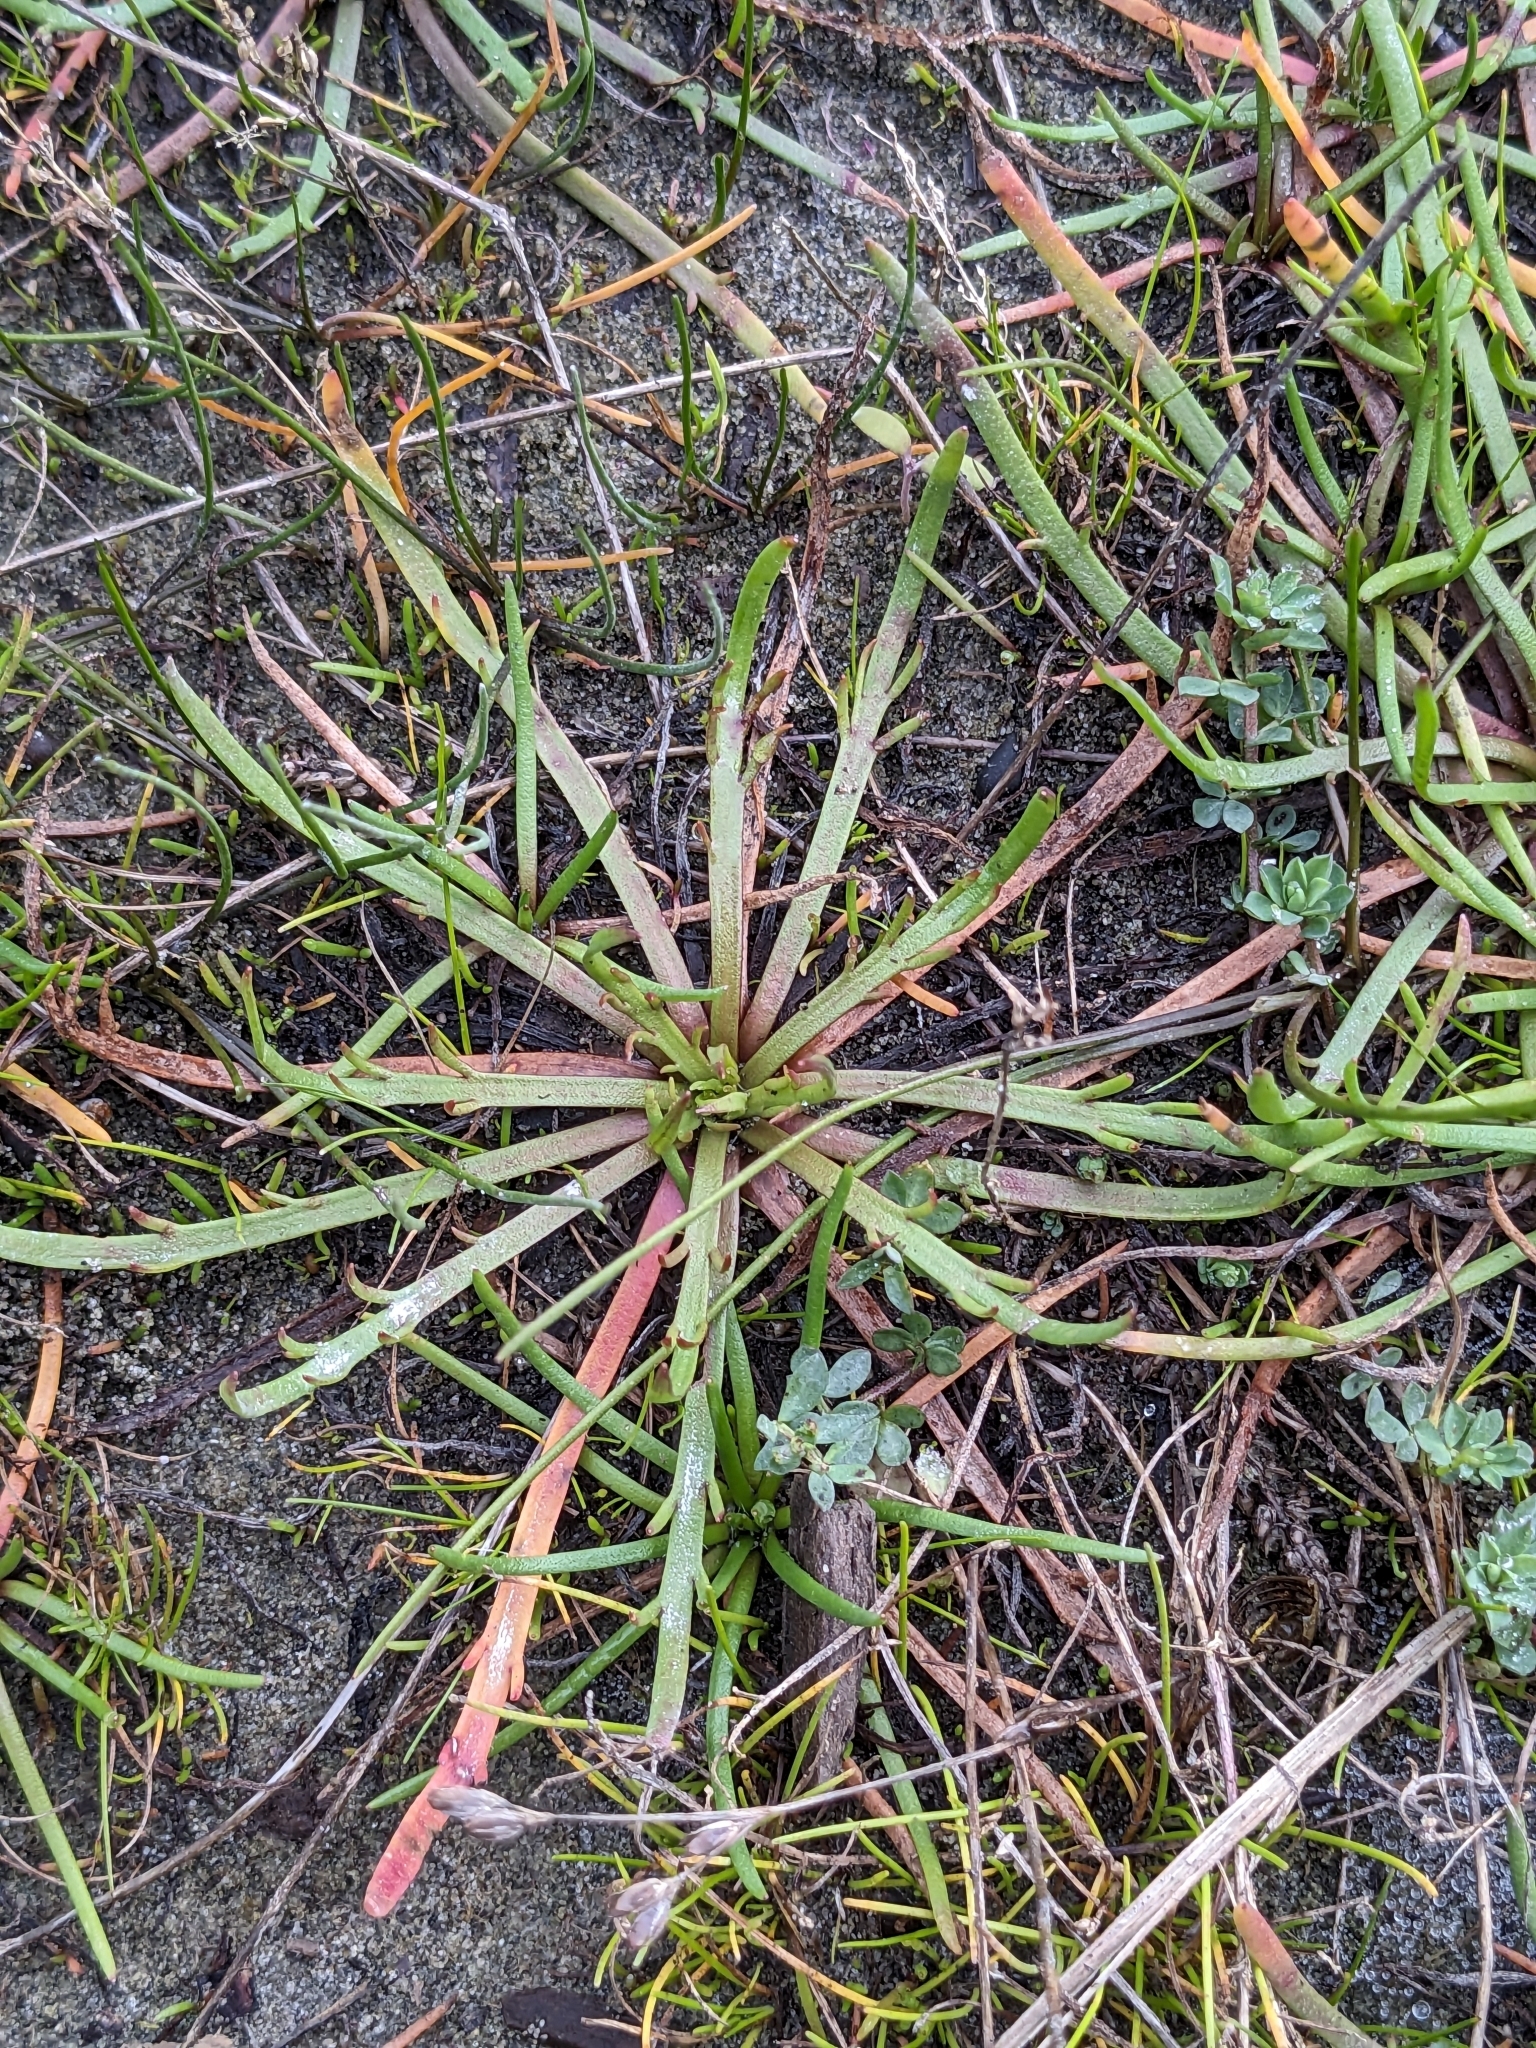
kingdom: Plantae
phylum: Tracheophyta
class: Magnoliopsida
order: Lamiales
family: Plantaginaceae
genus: Plantago
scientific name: Plantago coronopus
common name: Buck's-horn plantain
